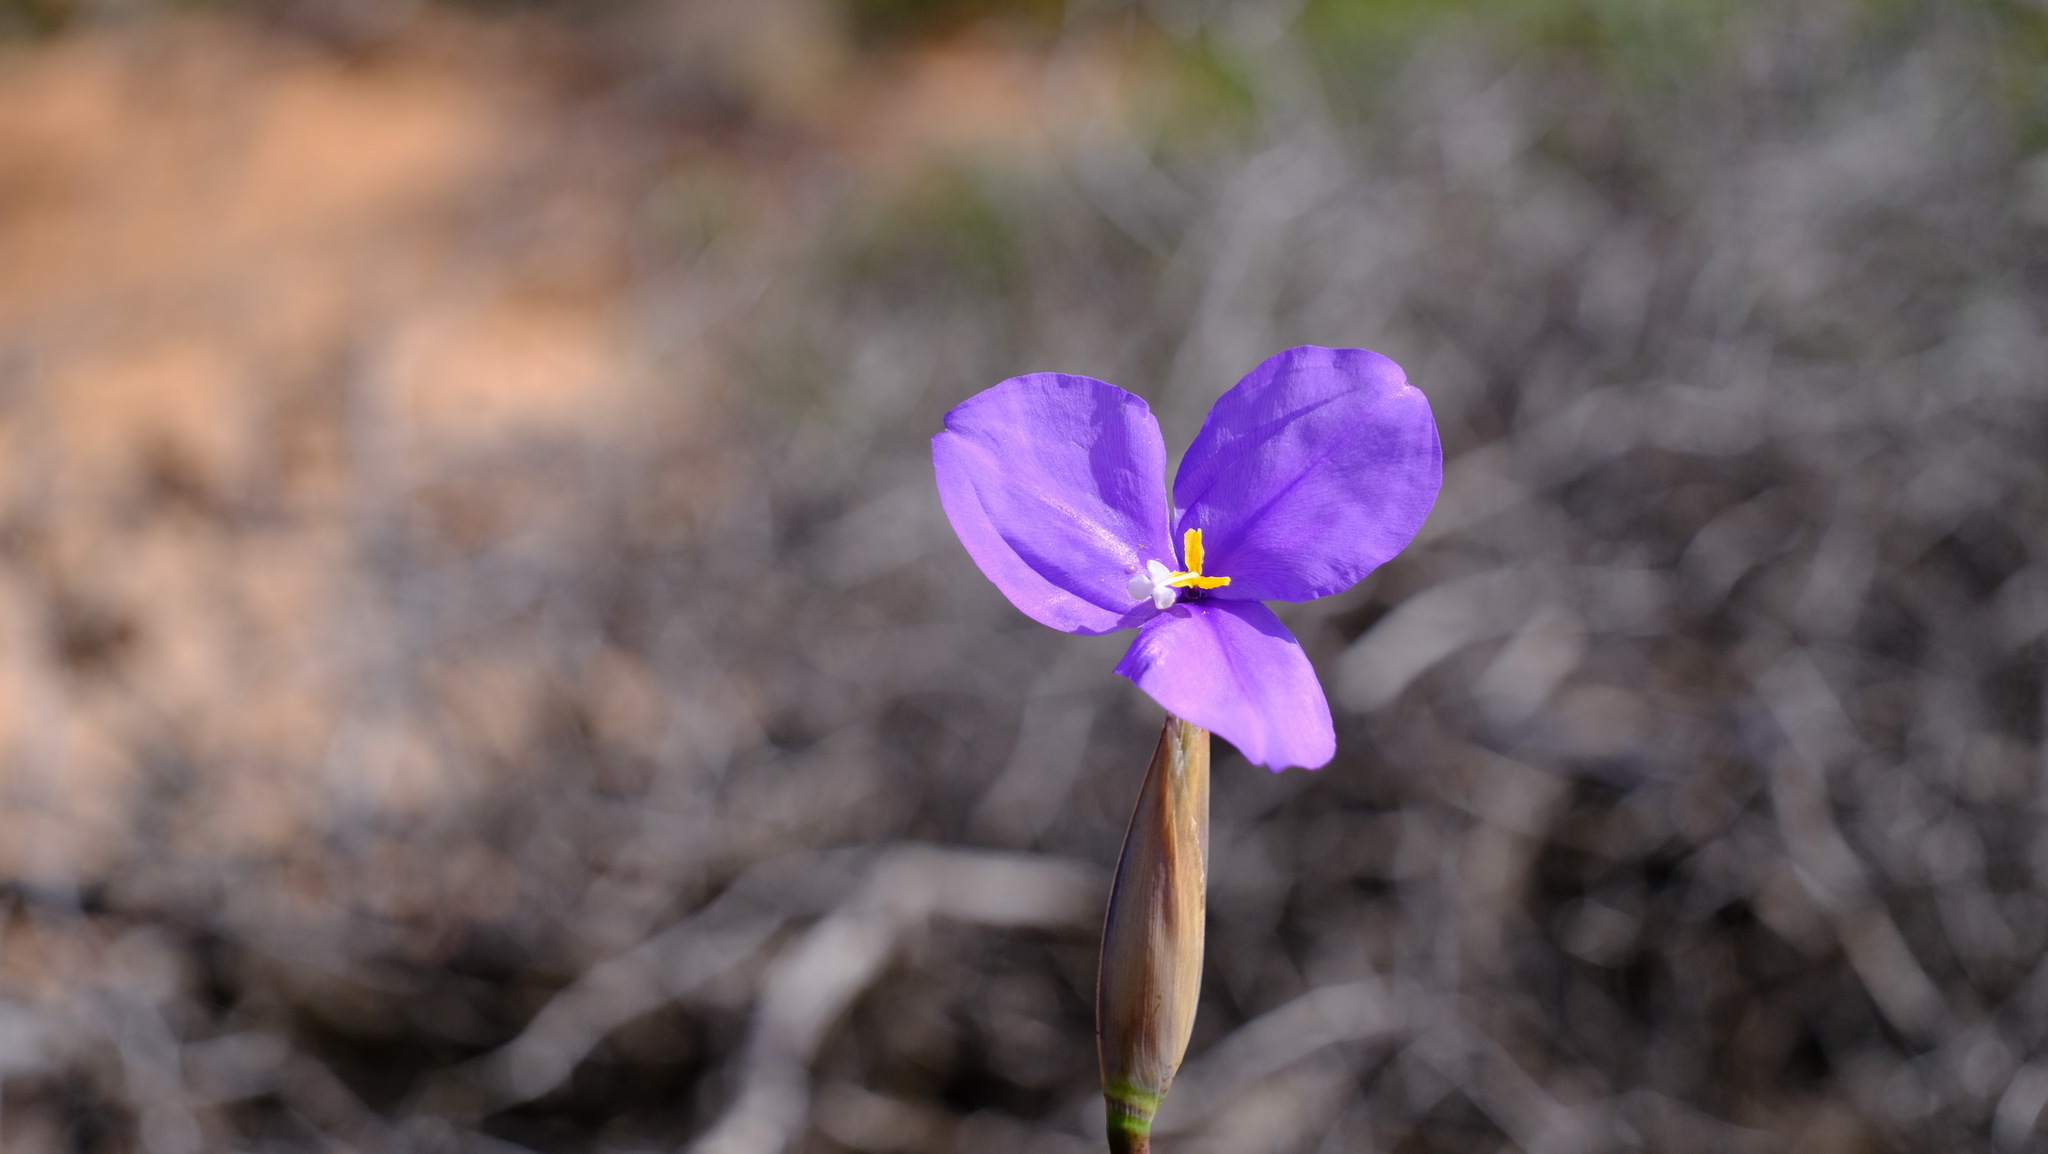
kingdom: Plantae
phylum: Tracheophyta
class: Liliopsida
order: Asparagales
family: Iridaceae
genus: Patersonia
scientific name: Patersonia occidentalis
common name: Long purple-flag
